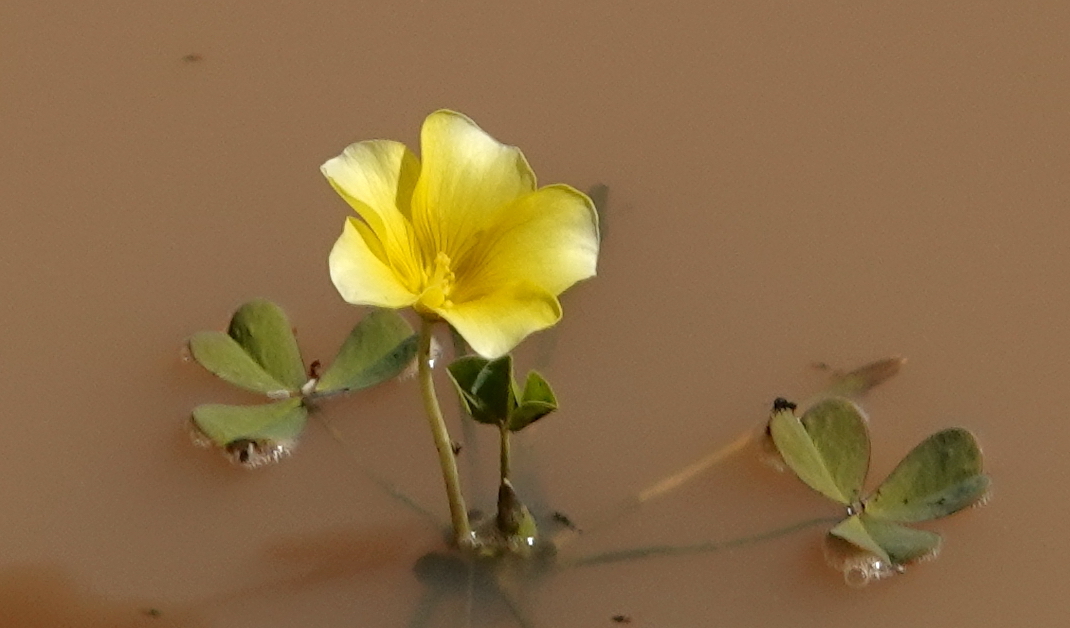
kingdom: Plantae
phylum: Tracheophyta
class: Magnoliopsida
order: Oxalidales
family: Oxalidaceae
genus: Oxalis
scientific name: Oxalis disticha
